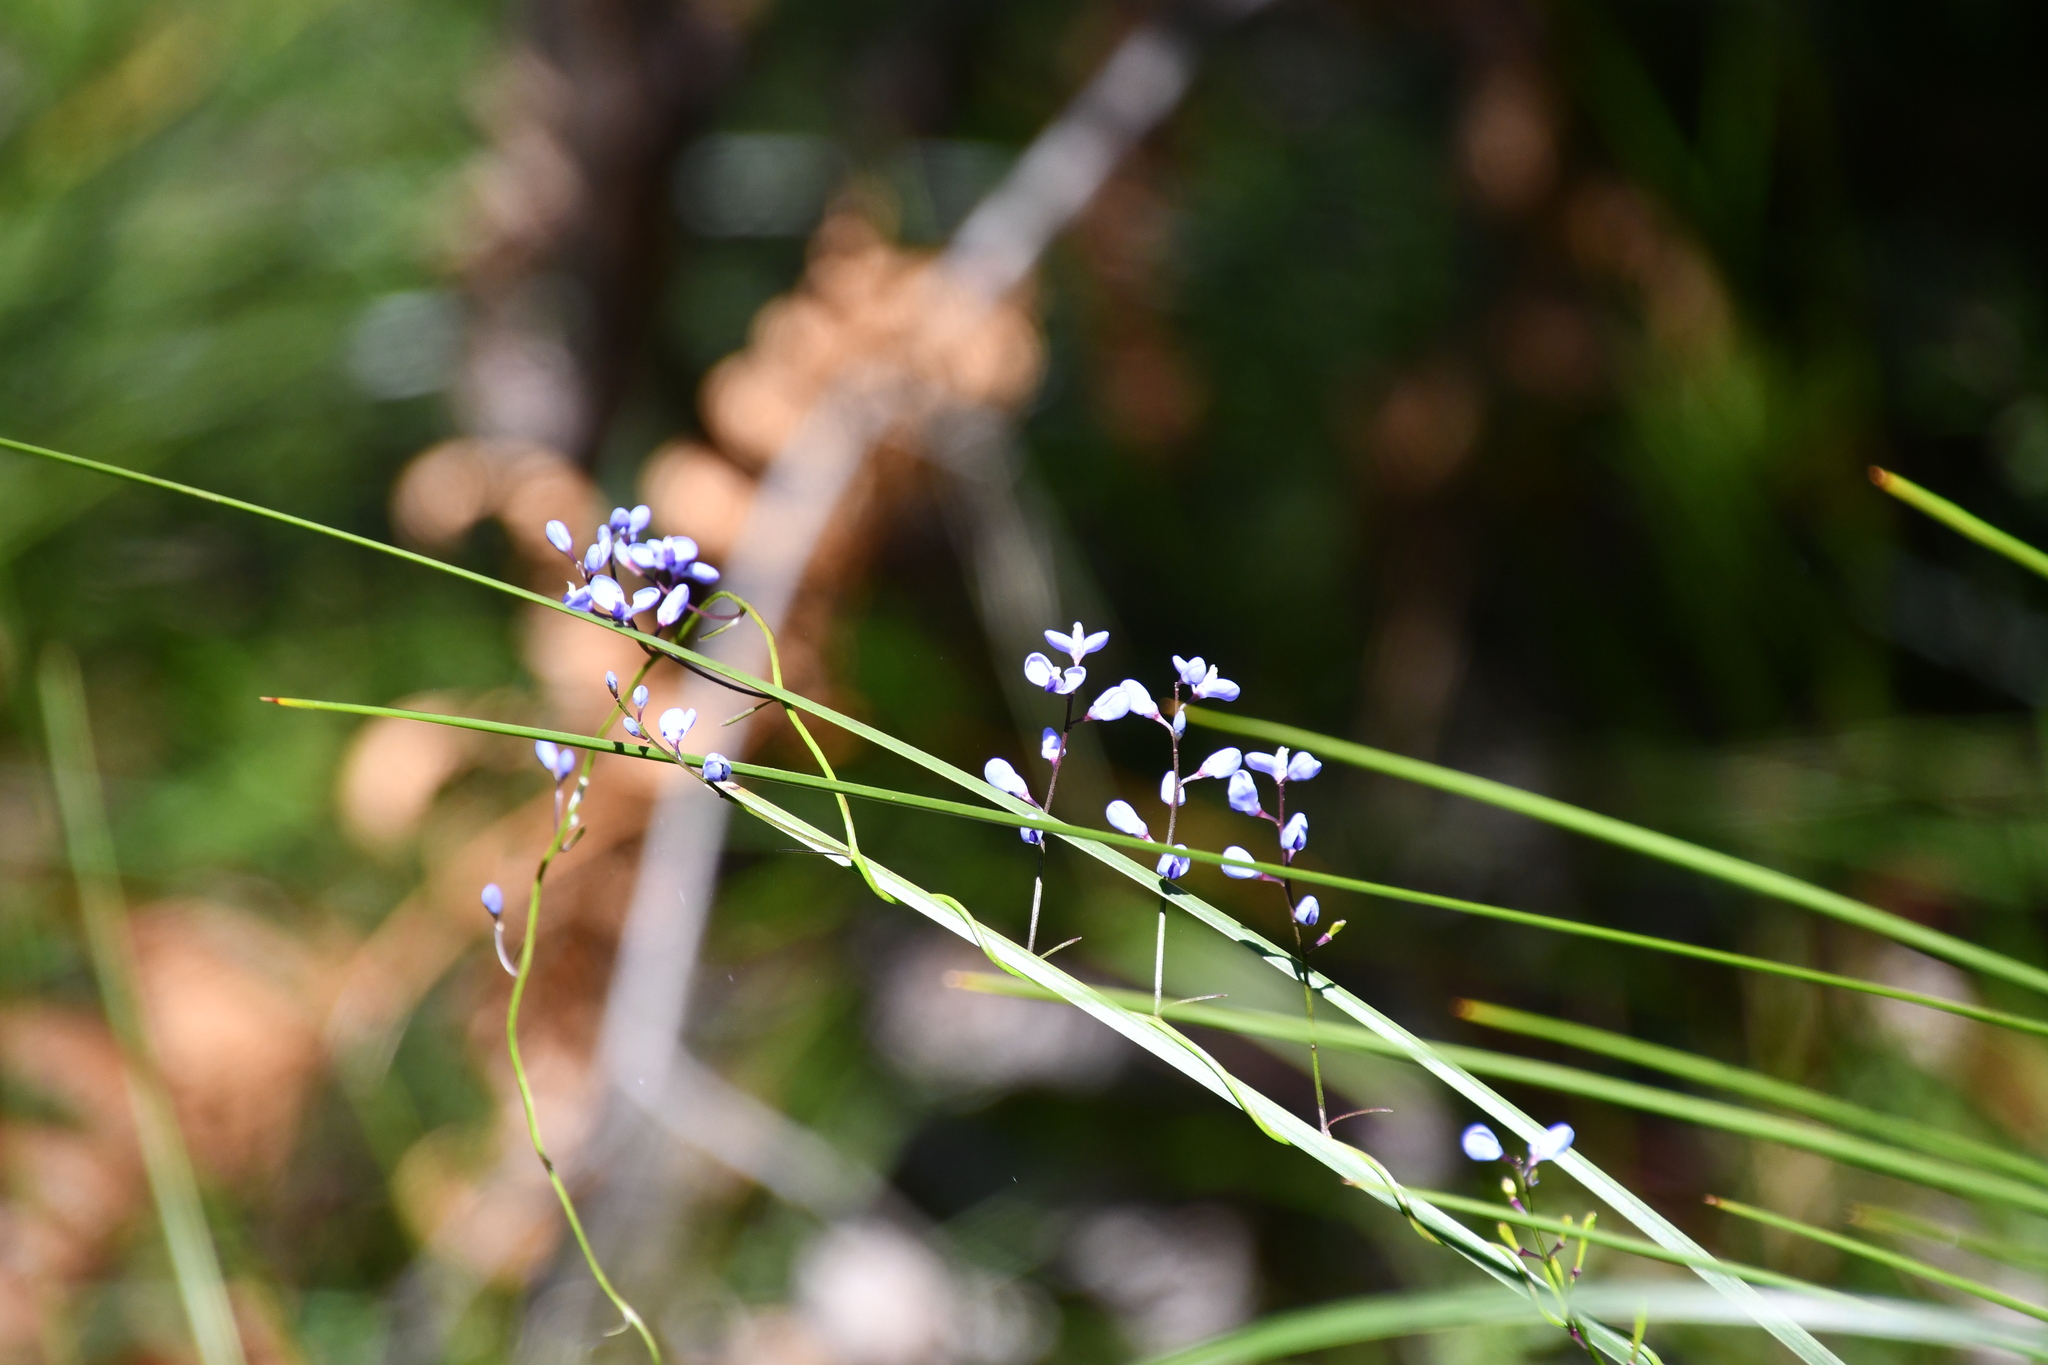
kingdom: Plantae
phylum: Tracheophyta
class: Magnoliopsida
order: Fabales
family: Polygalaceae
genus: Comesperma
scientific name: Comesperma volubile
